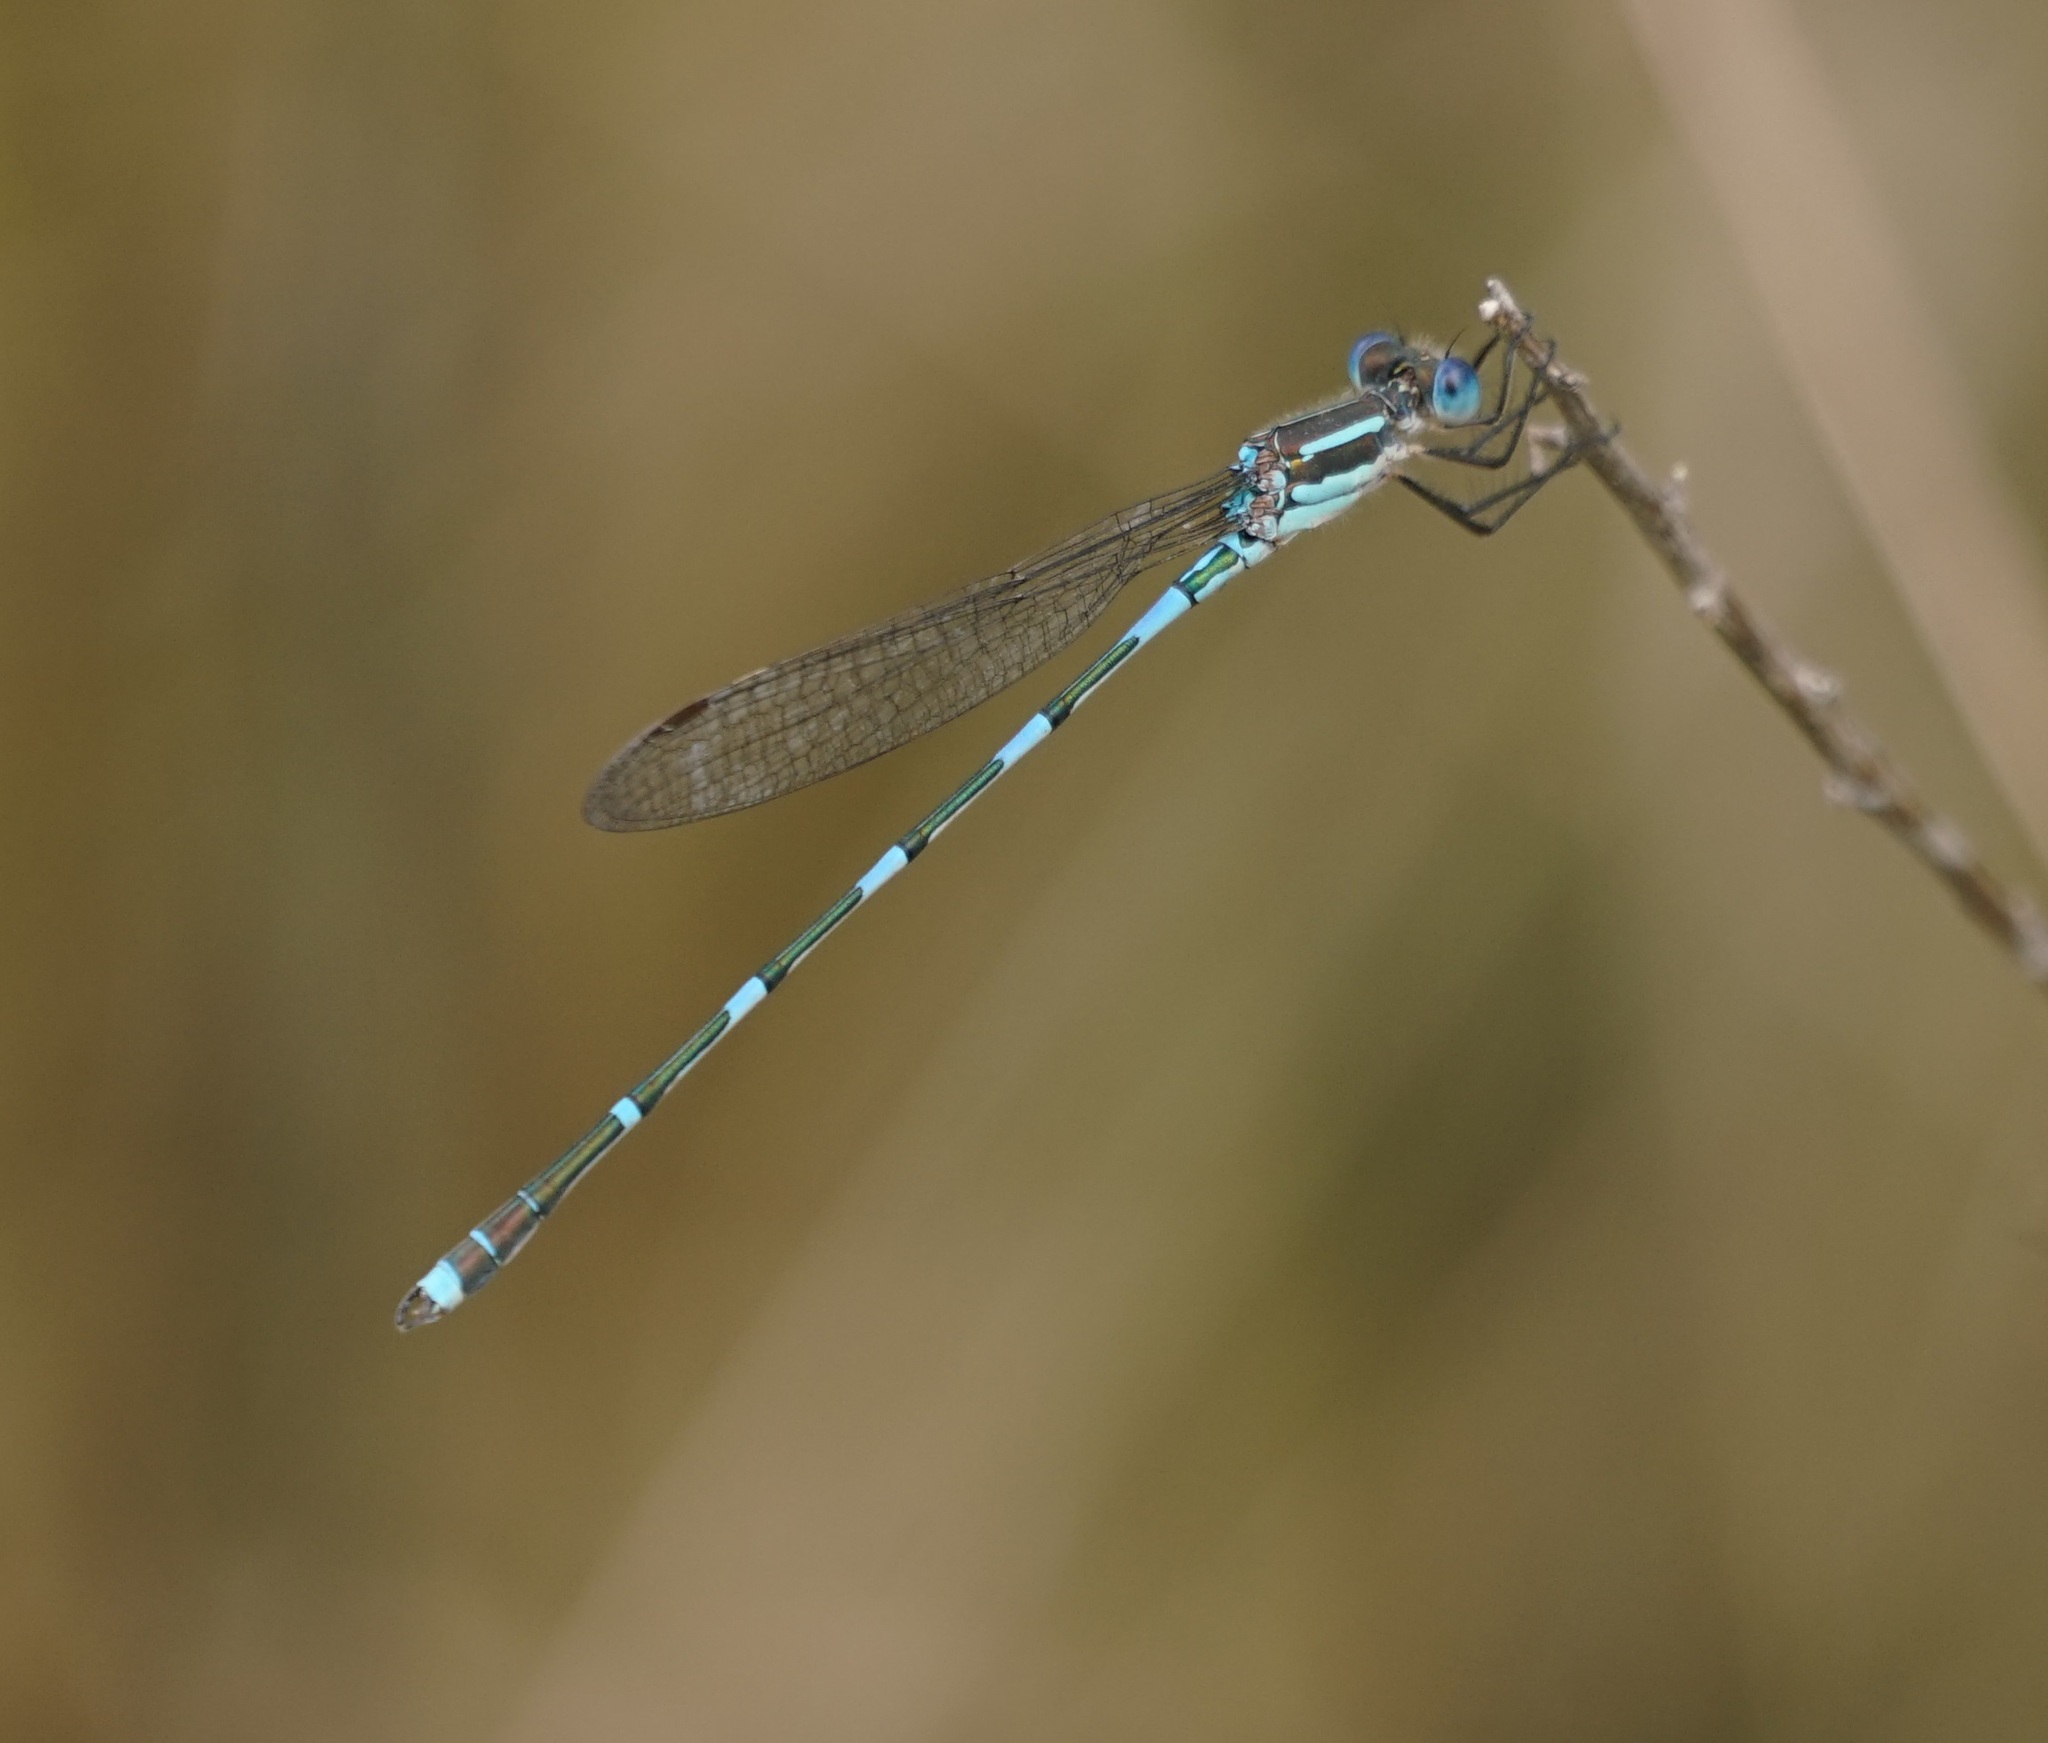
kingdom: Animalia
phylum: Arthropoda
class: Insecta
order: Odonata
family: Lestidae
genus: Austrolestes
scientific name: Austrolestes leda
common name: Wandering ringtail
